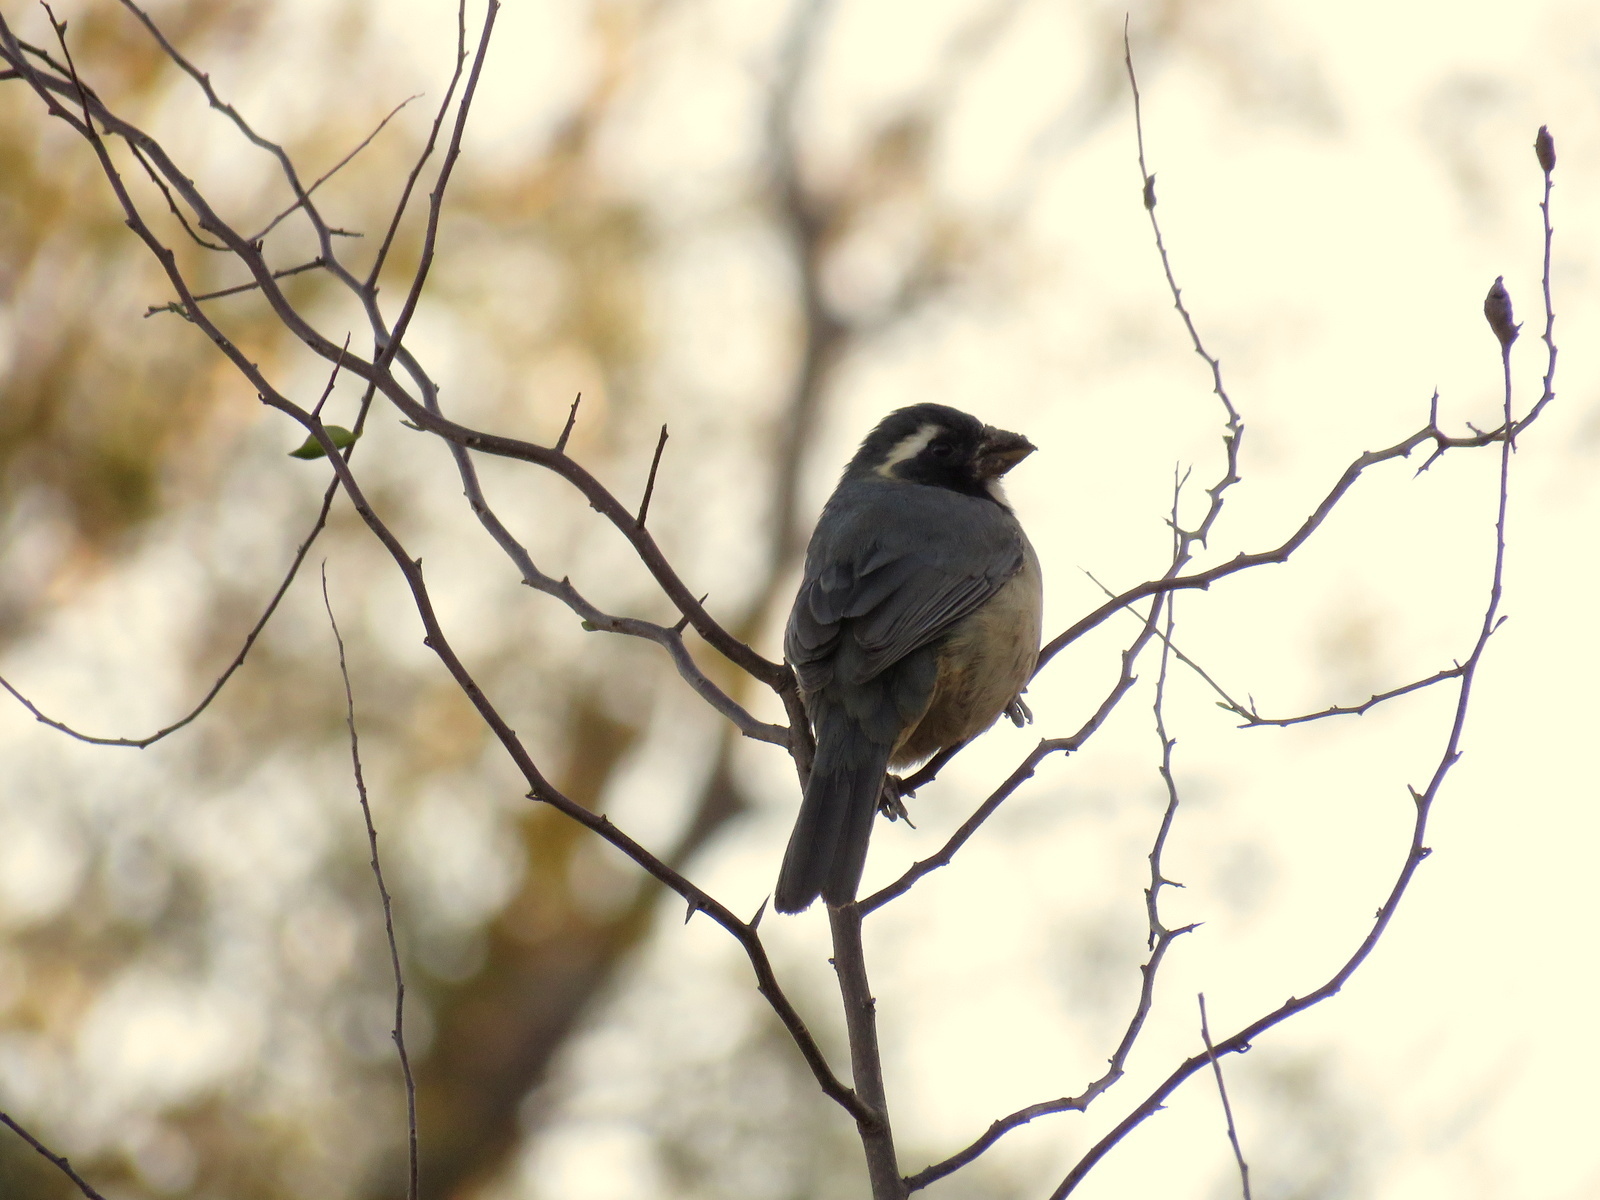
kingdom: Animalia
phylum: Chordata
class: Aves
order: Passeriformes
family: Thraupidae
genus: Saltator
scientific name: Saltator aurantiirostris
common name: Golden-billed saltator
